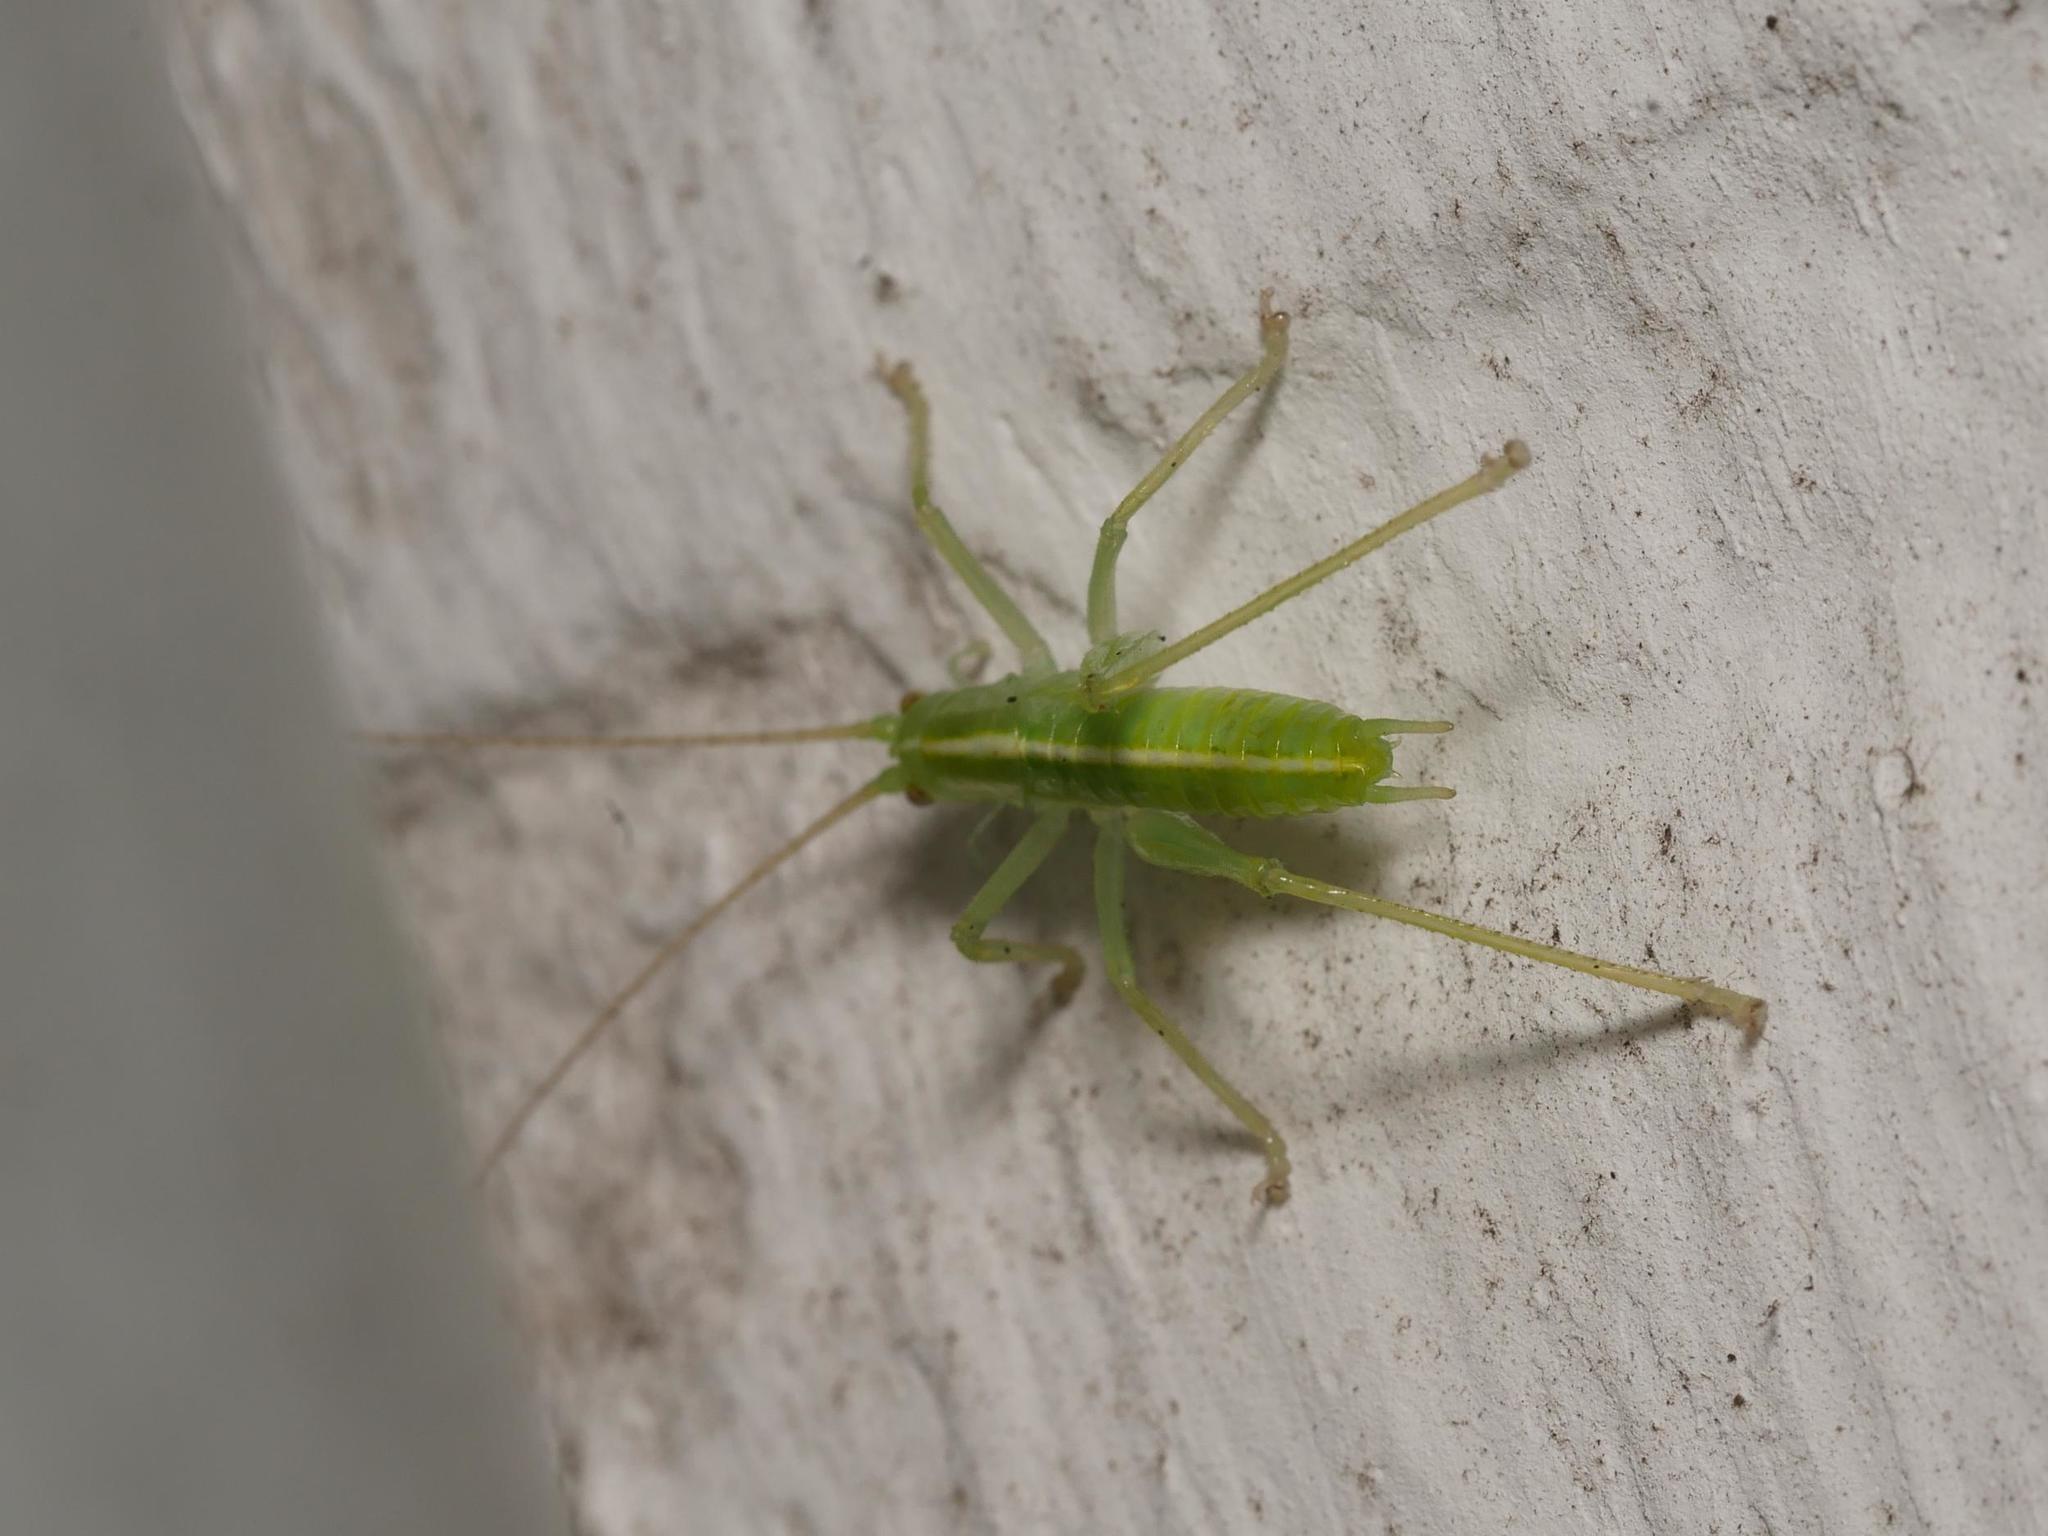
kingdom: Animalia
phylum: Arthropoda
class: Insecta
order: Orthoptera
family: Tettigoniidae
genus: Meconema
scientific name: Meconema meridionale
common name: Southern oak bush-cricket
